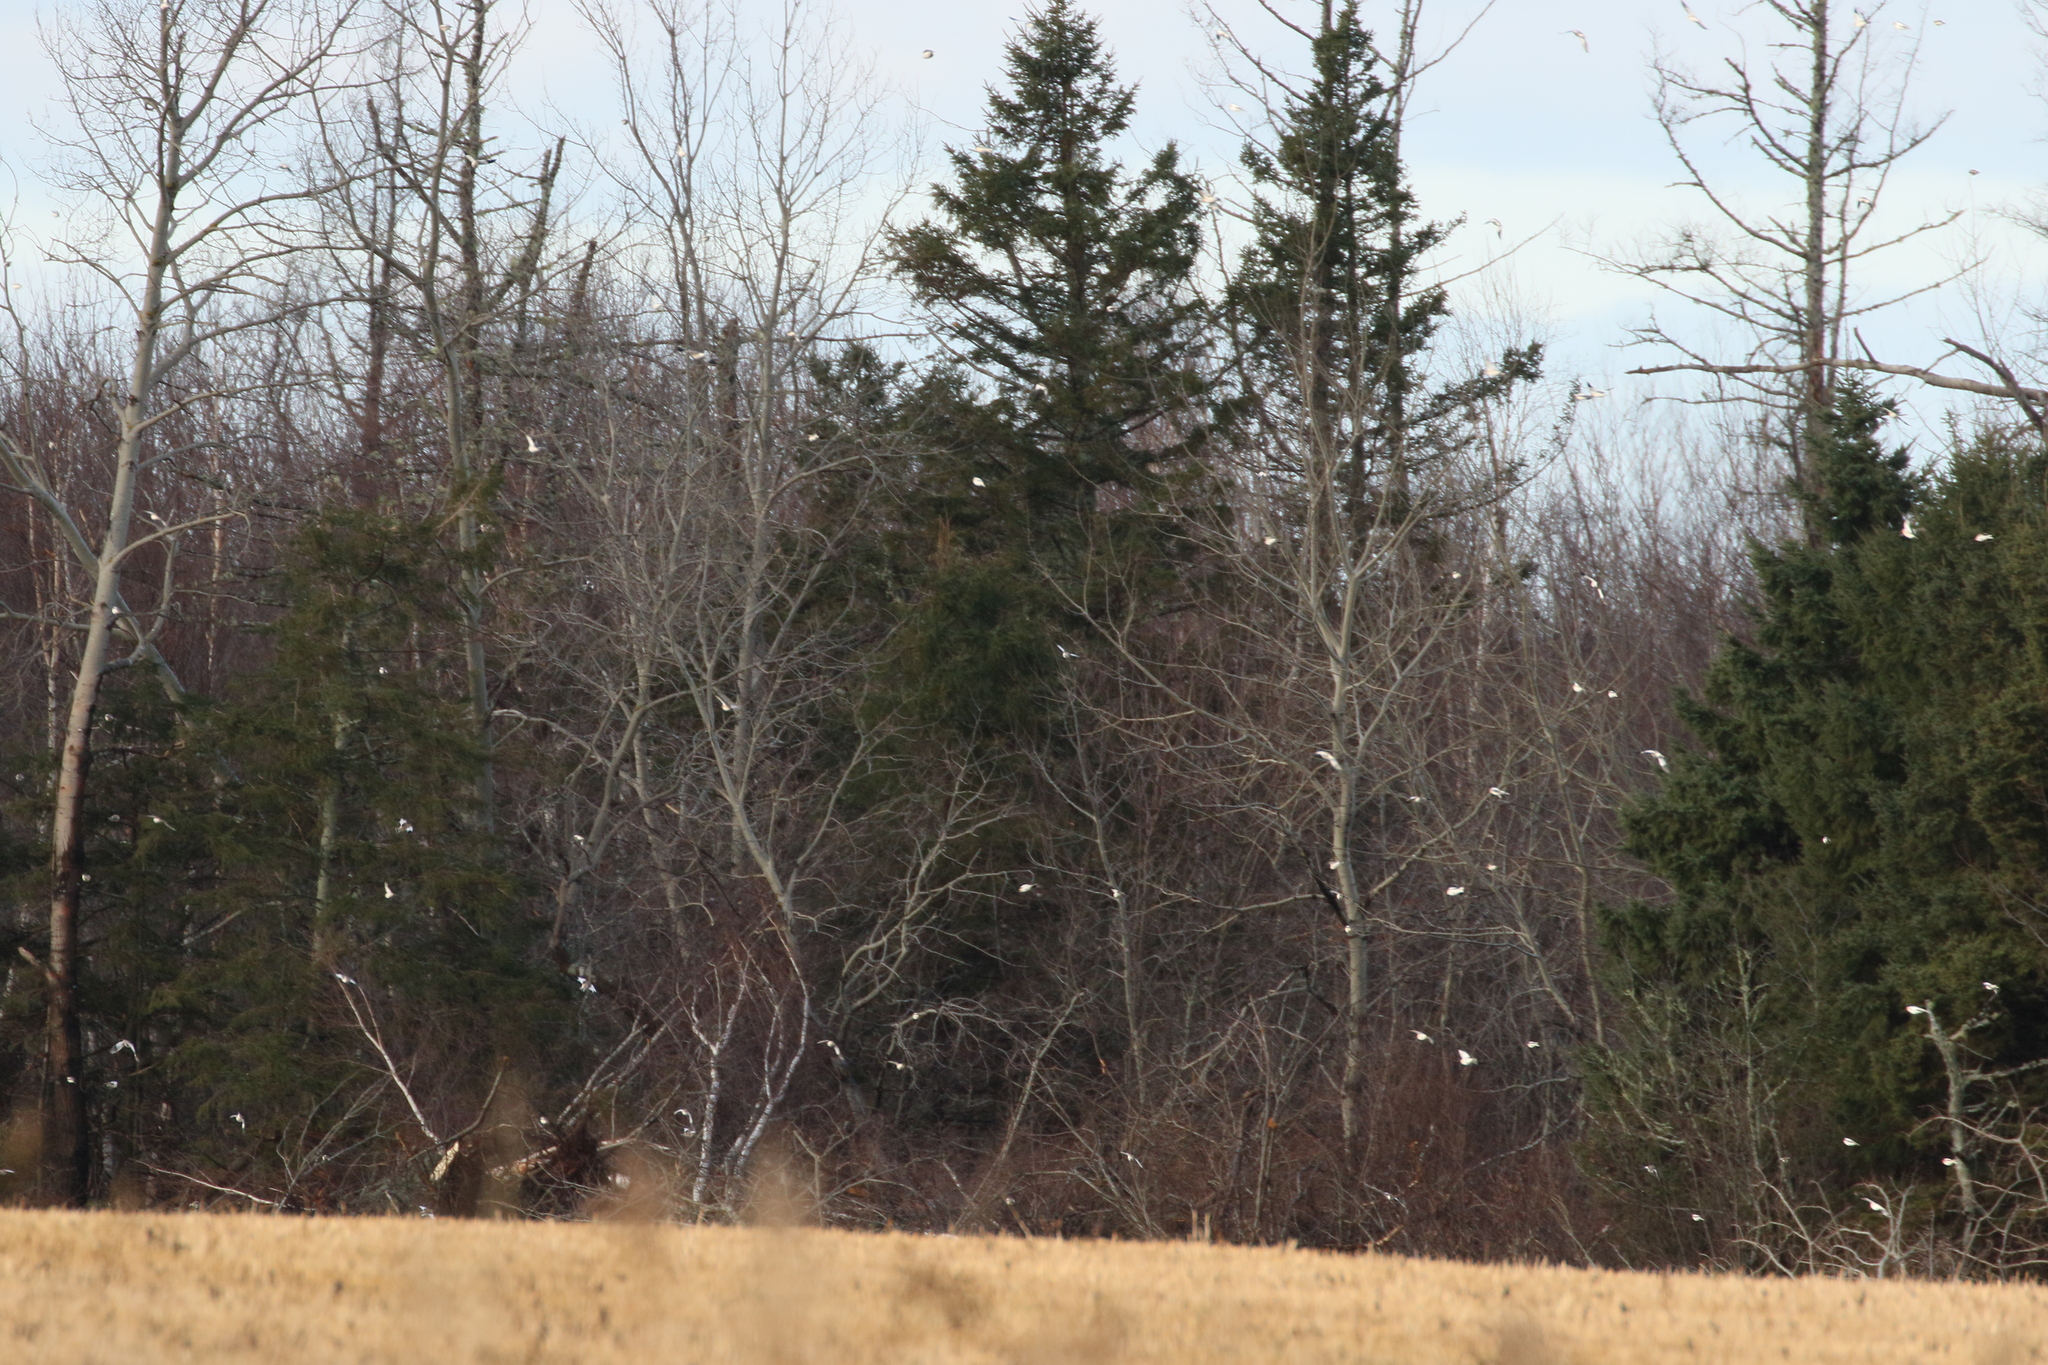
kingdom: Animalia
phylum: Chordata
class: Aves
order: Passeriformes
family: Calcariidae
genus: Plectrophenax
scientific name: Plectrophenax nivalis
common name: Snow bunting
